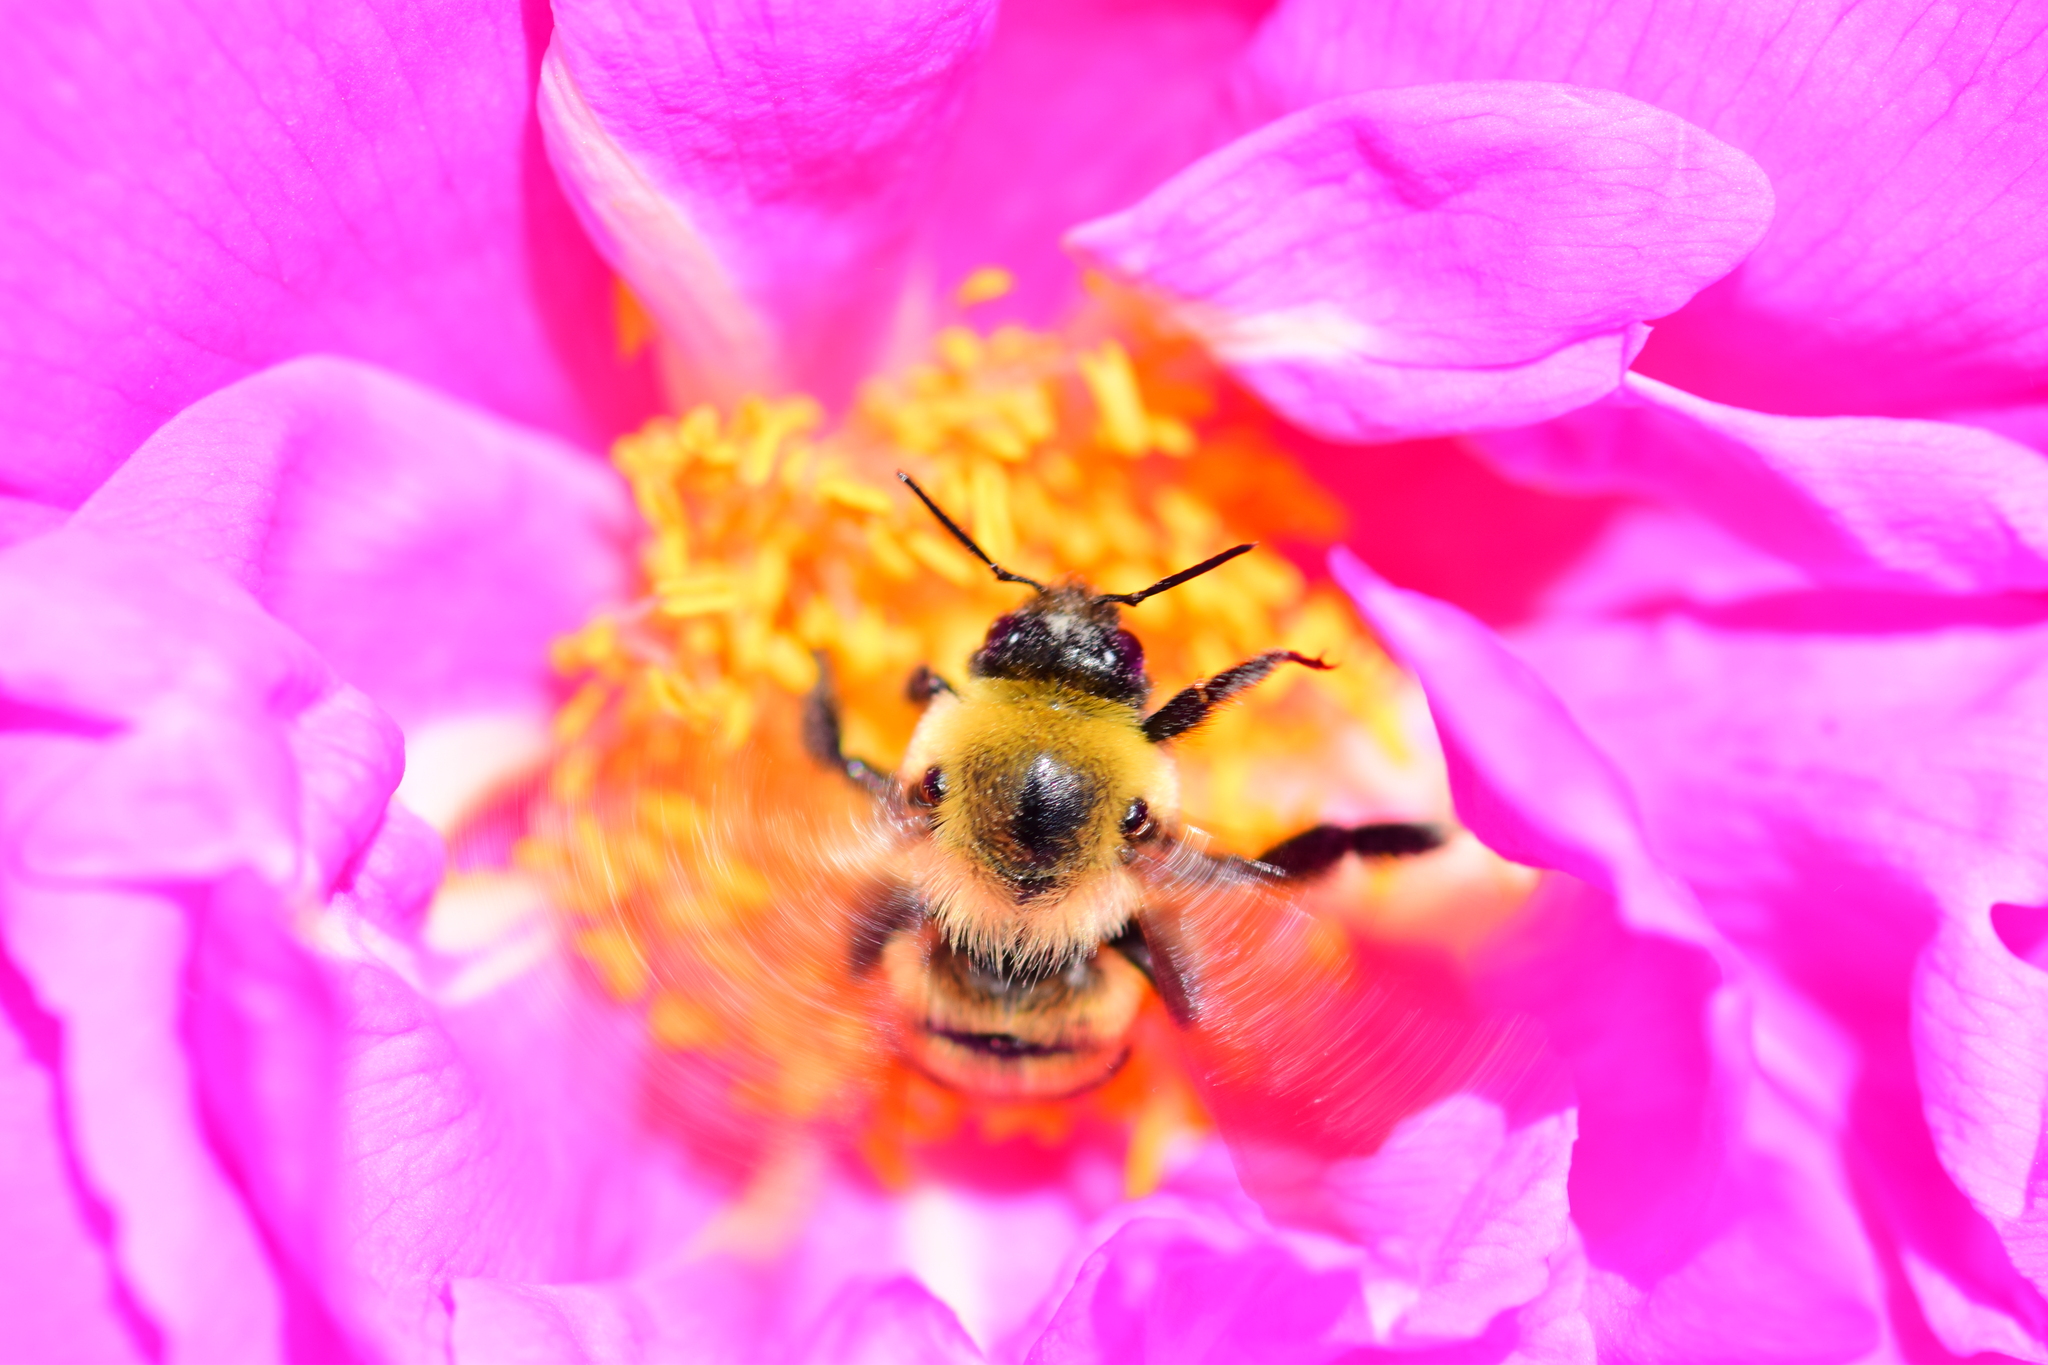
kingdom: Animalia
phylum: Arthropoda
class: Insecta
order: Hymenoptera
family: Apidae
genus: Bombus
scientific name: Bombus griseocollis
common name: Brown-belted bumble bee
